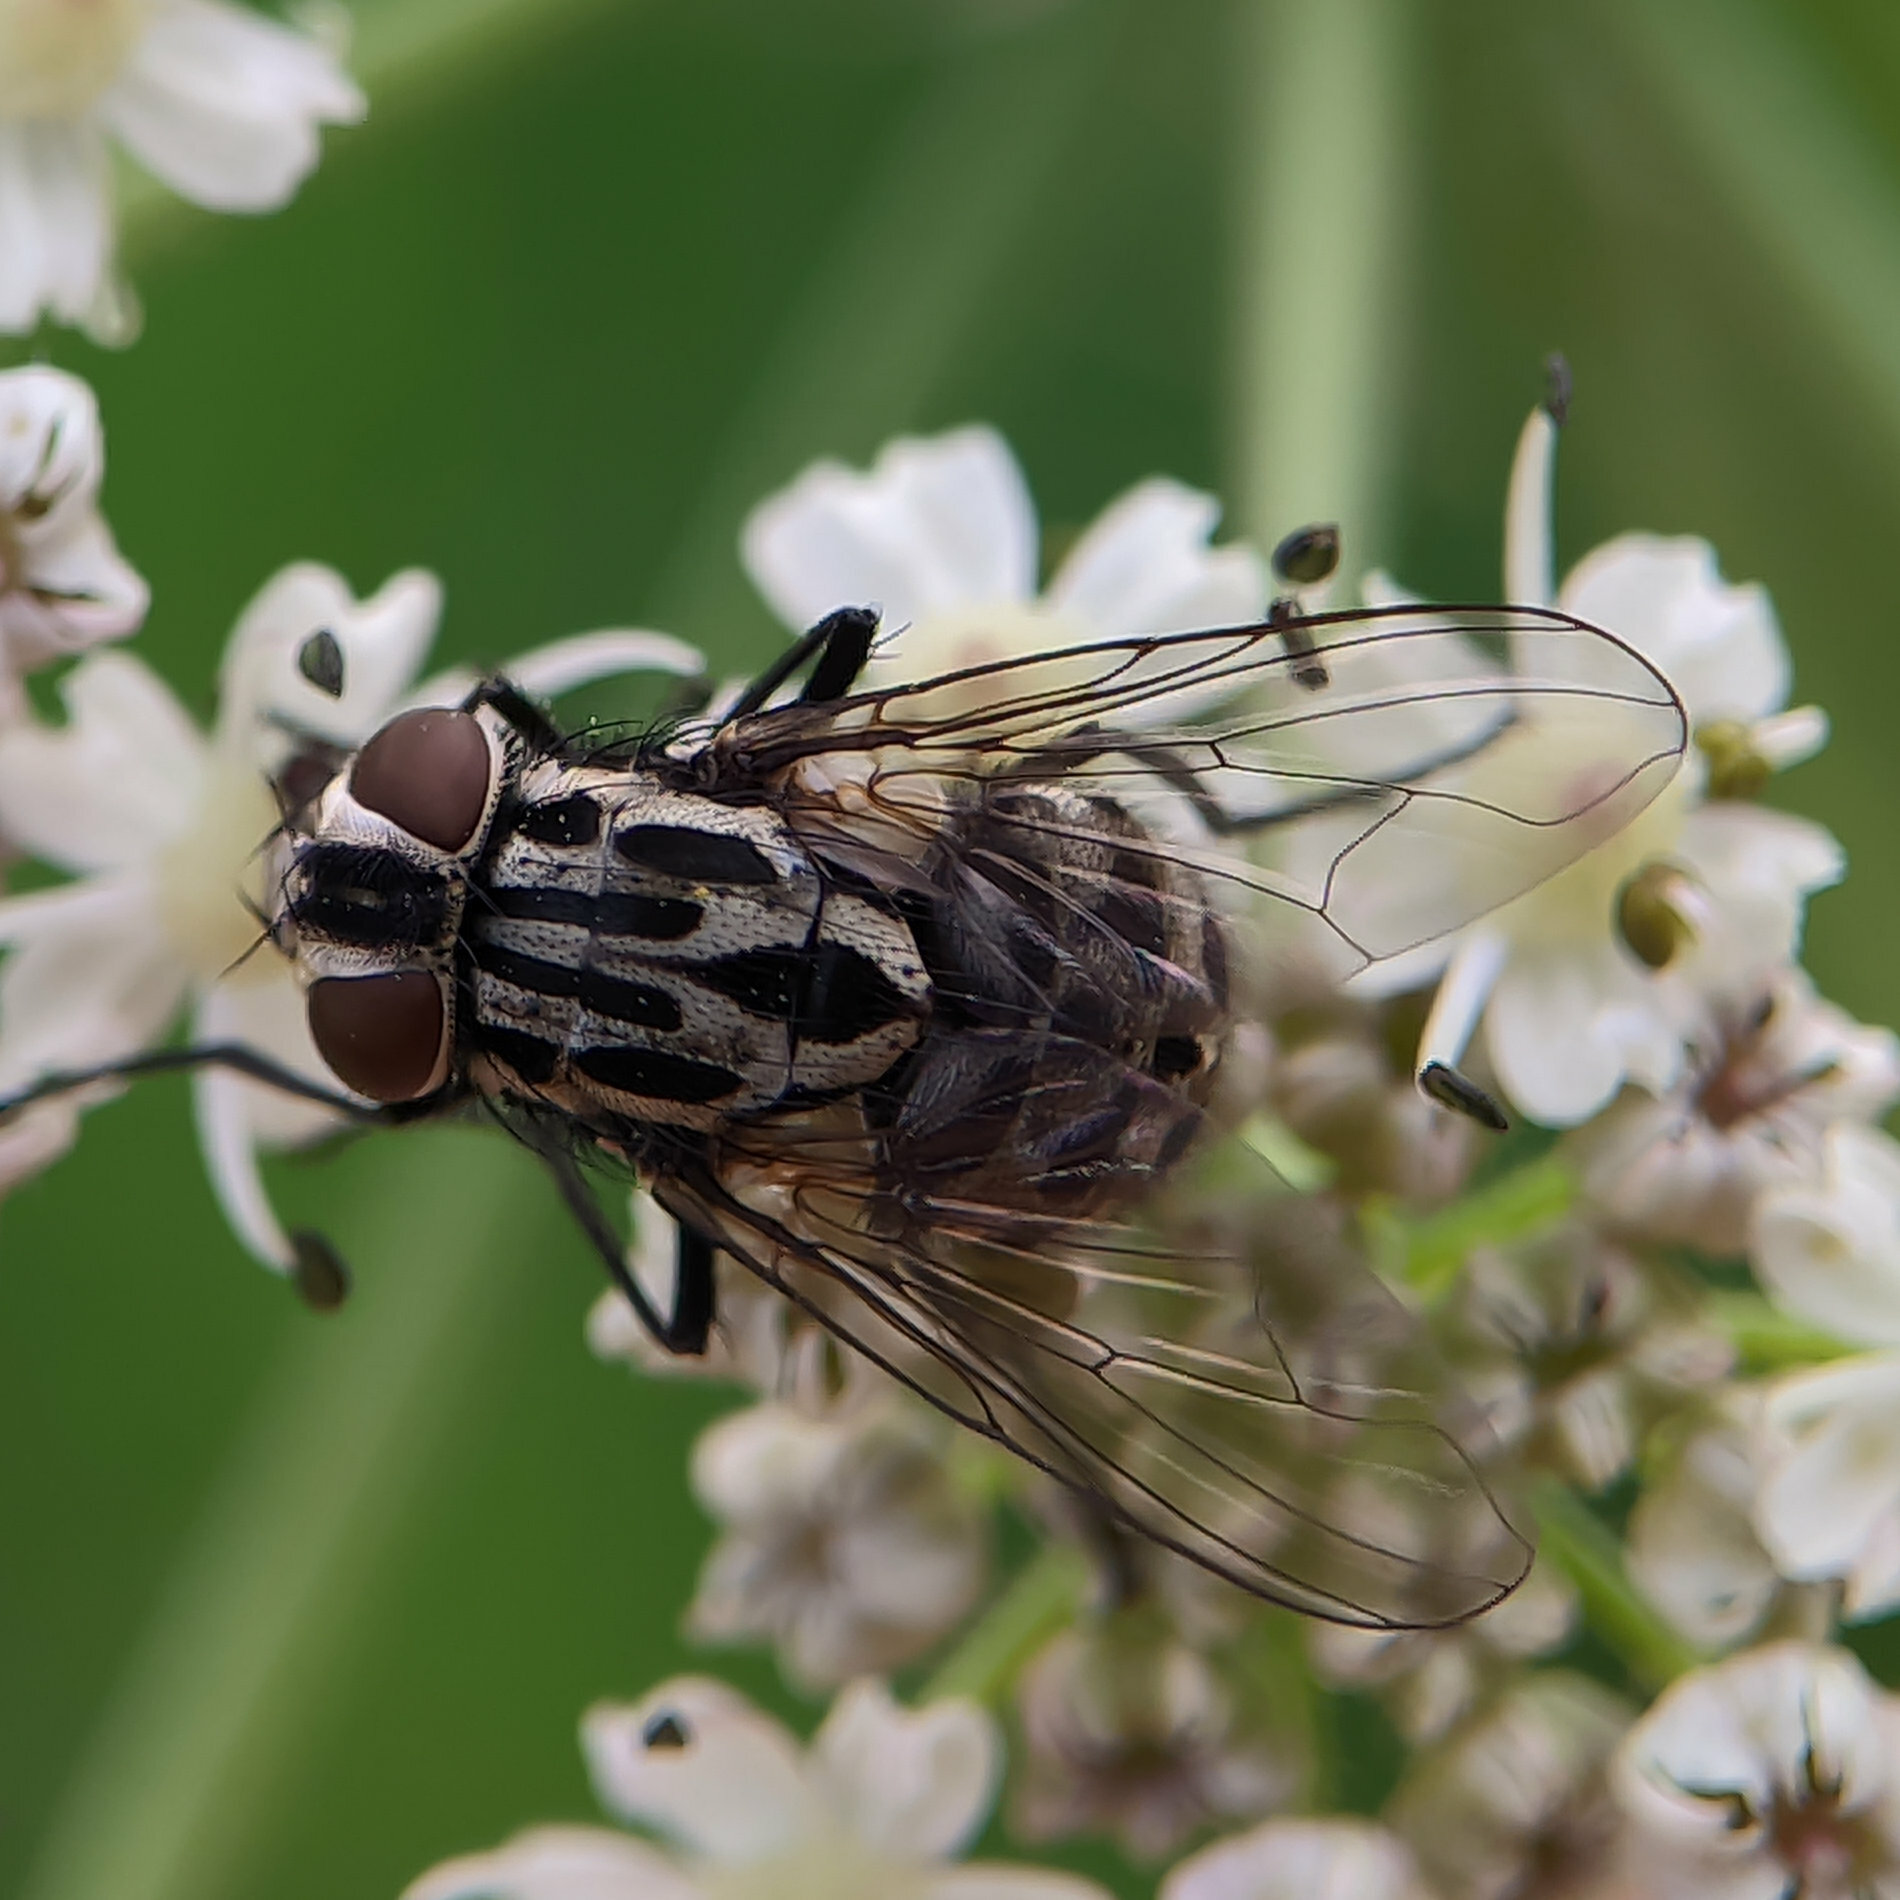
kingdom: Animalia
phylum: Arthropoda
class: Insecta
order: Diptera
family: Muscidae
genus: Graphomya
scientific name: Graphomya maculata
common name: Muscid fly
